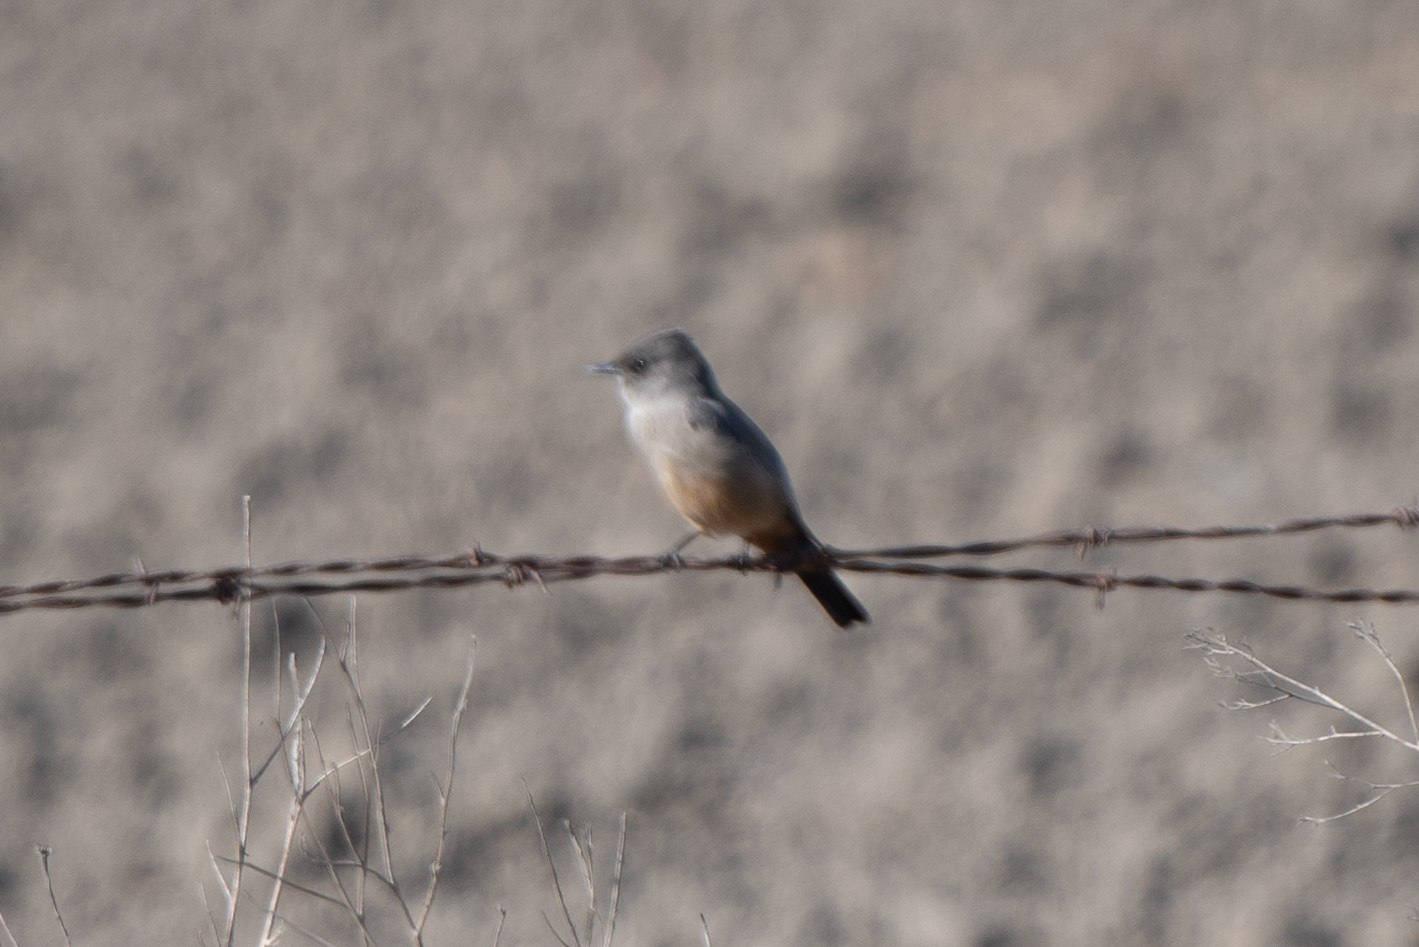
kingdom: Animalia
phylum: Chordata
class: Aves
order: Passeriformes
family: Tyrannidae
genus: Sayornis
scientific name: Sayornis saya
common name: Say's phoebe
